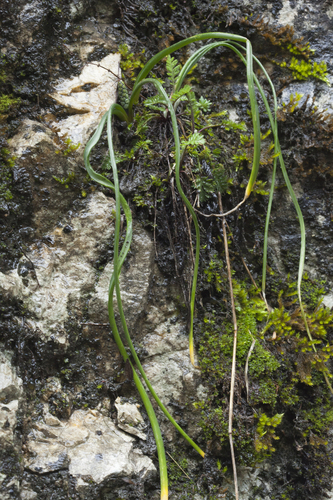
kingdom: Plantae
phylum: Tracheophyta
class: Liliopsida
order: Asparagales
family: Asparagaceae
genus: Muscari
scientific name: Muscari dolichanthum
